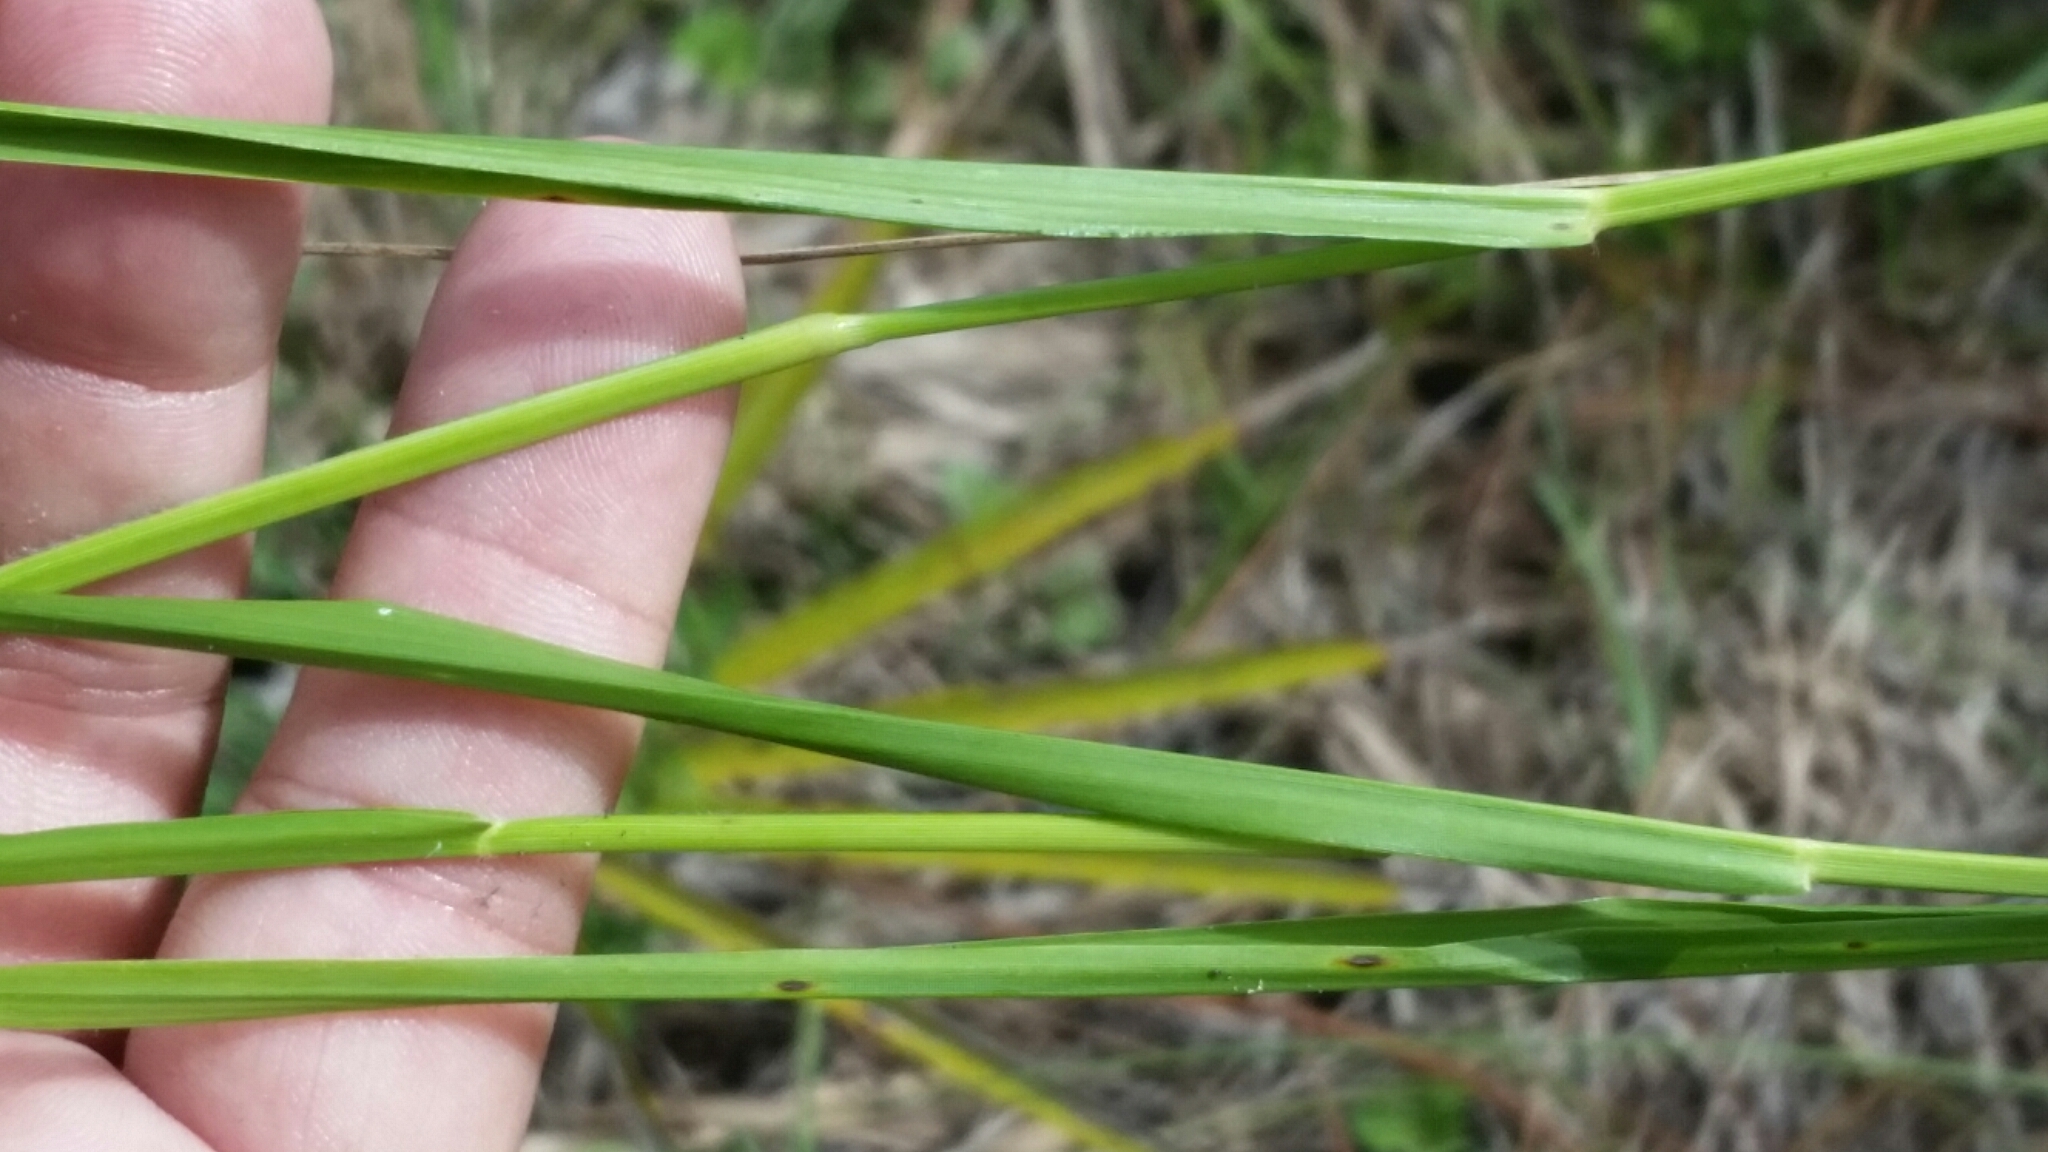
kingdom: Plantae
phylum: Tracheophyta
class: Liliopsida
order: Poales
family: Poaceae
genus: Steinchisma
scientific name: Steinchisma hians
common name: Gaping panic grass
